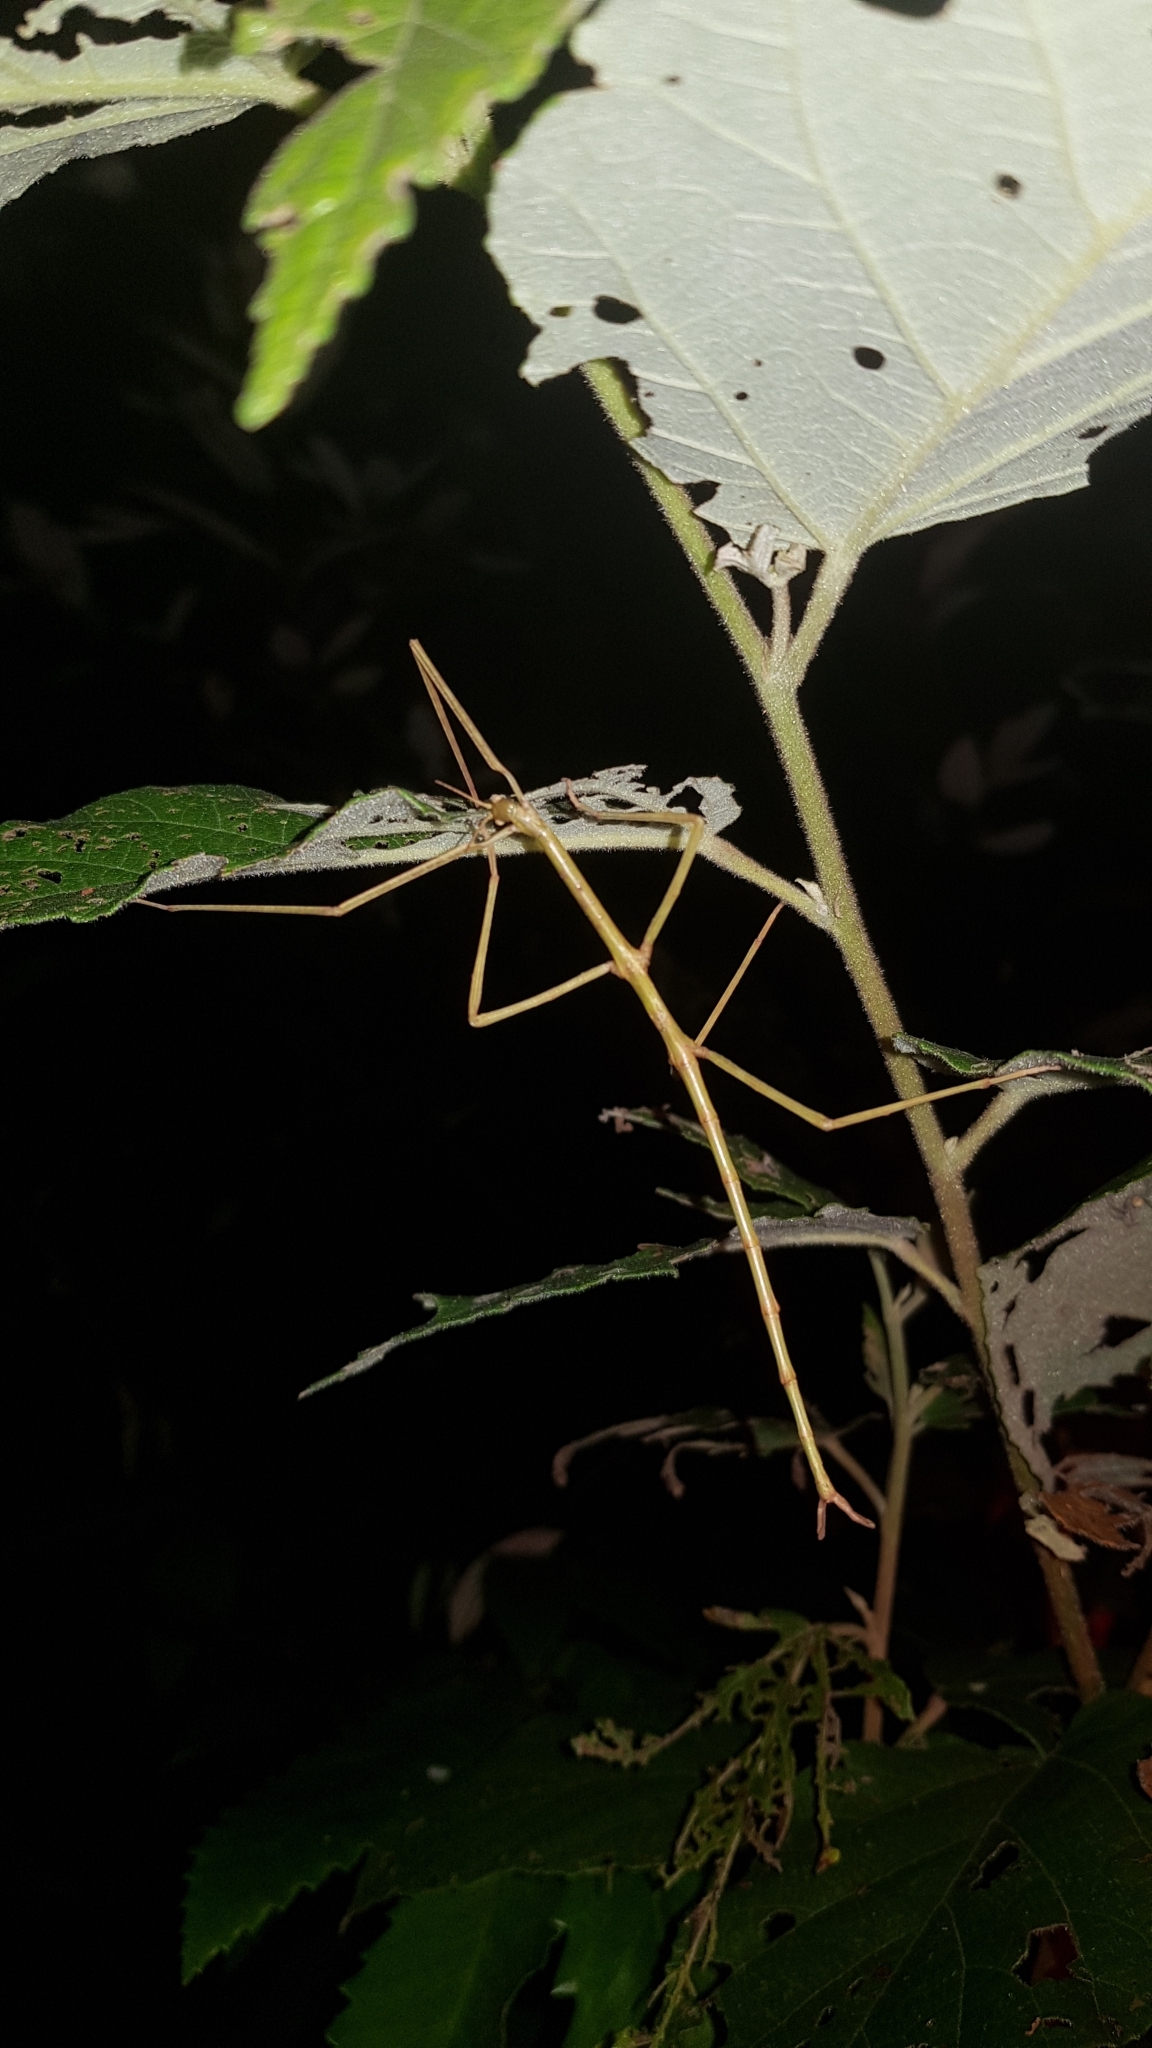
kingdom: Animalia
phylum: Arthropoda
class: Insecta
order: Phasmida
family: Phasmatidae
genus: Ctenomorpha
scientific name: Ctenomorpha marginipennis
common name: Margined-winged stick-insect
